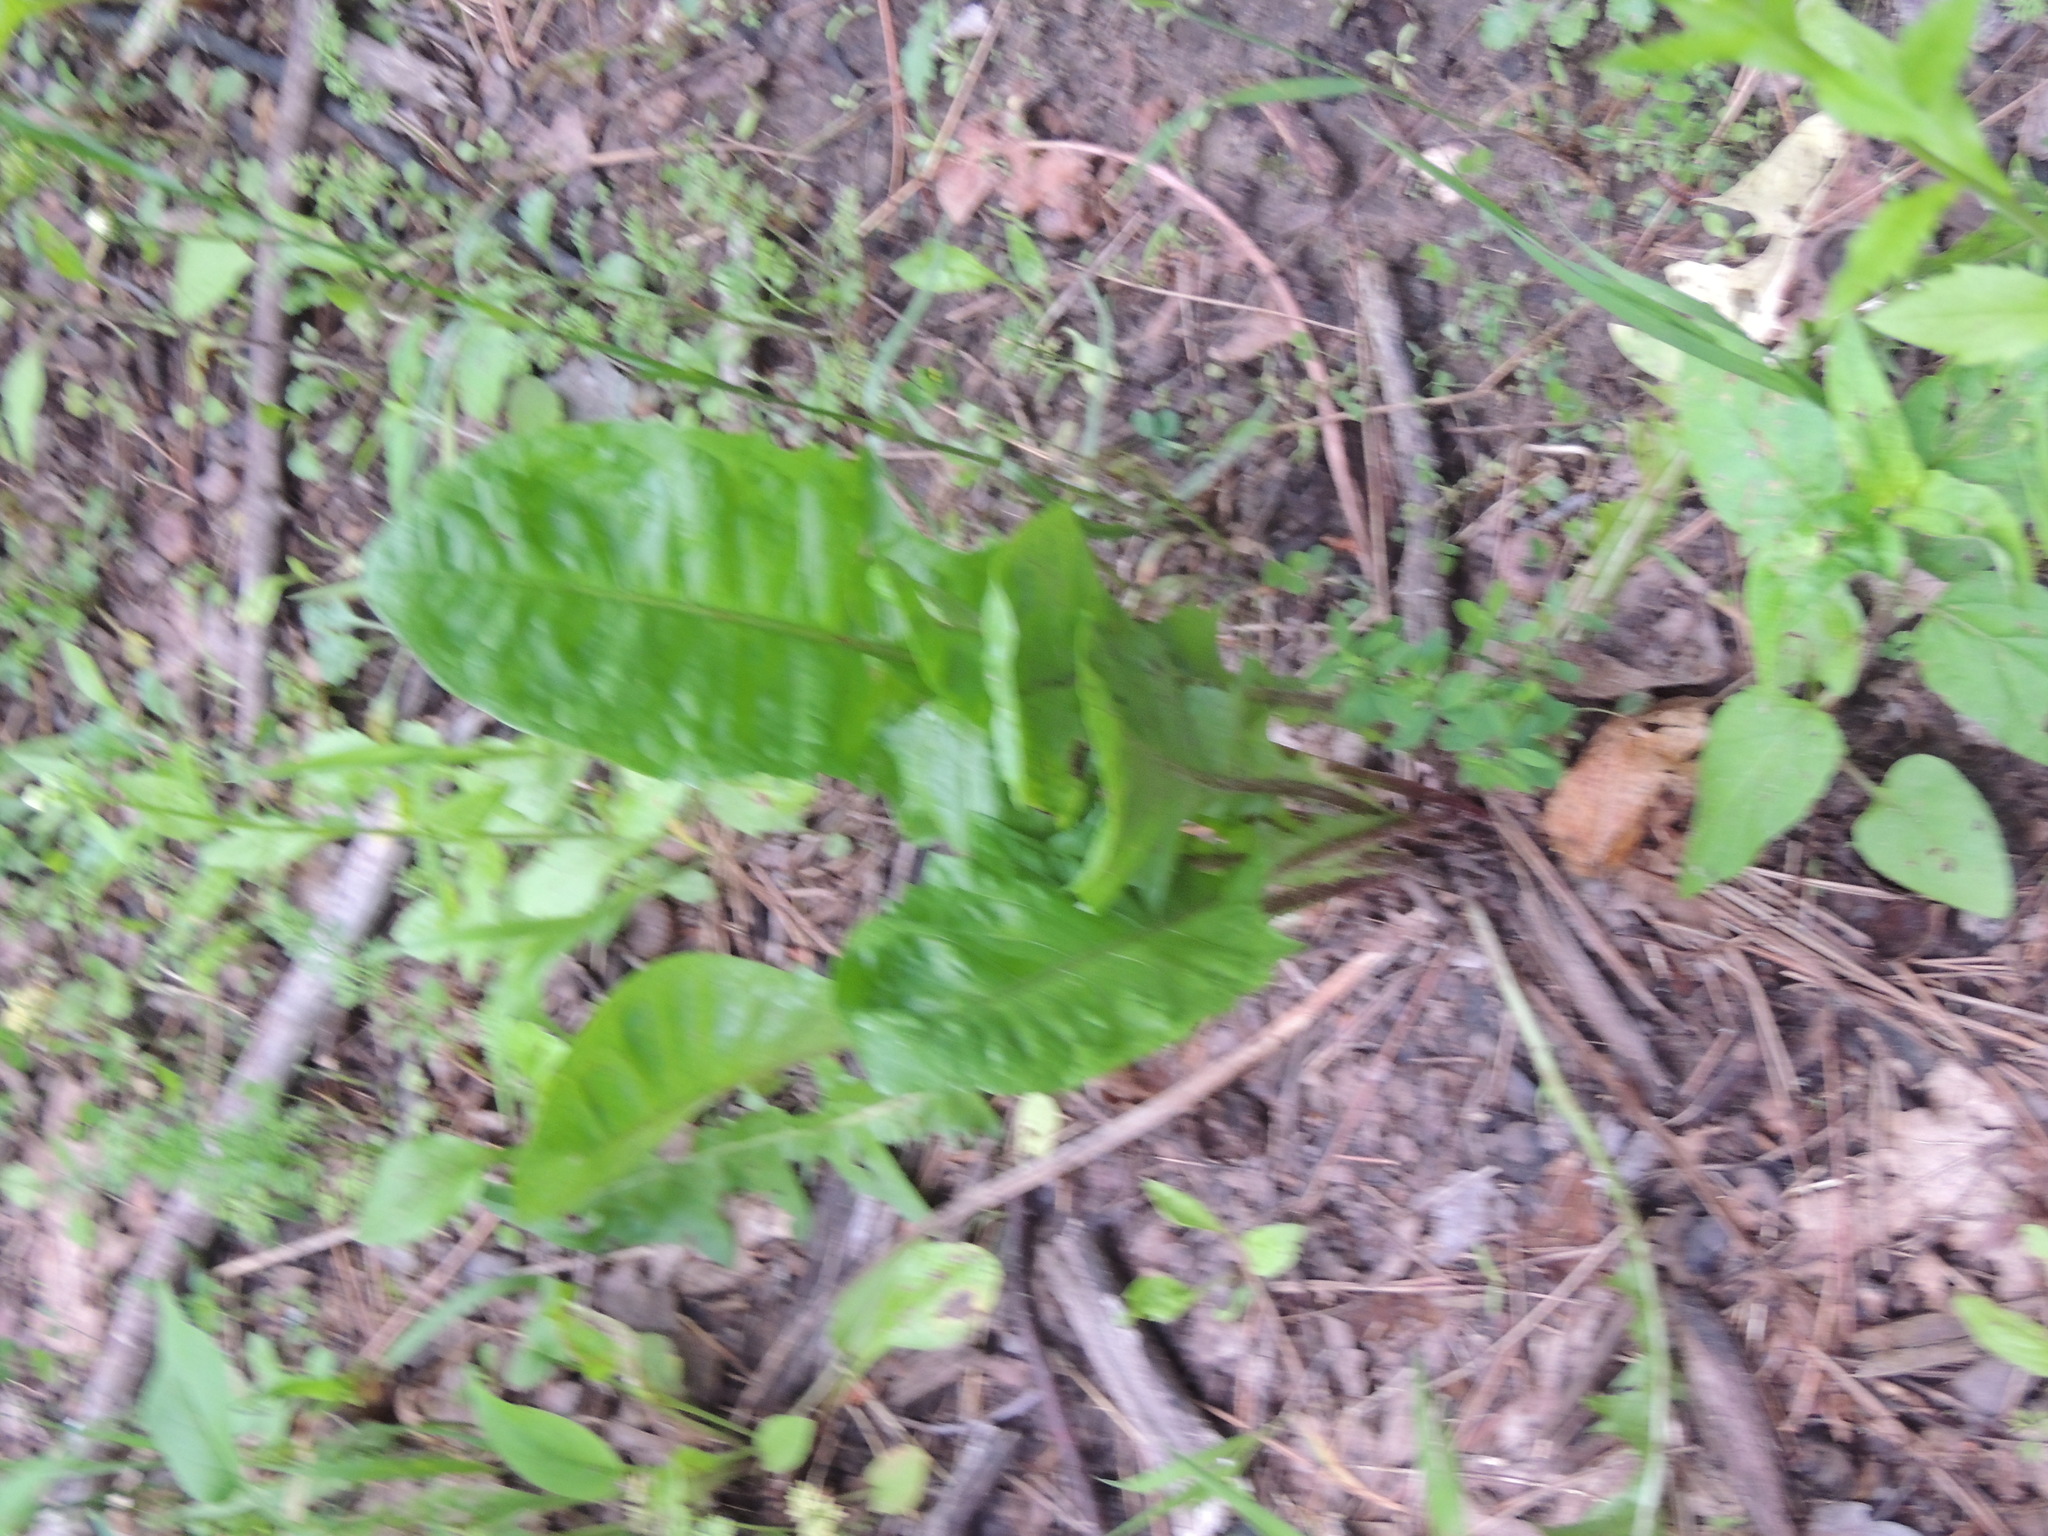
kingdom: Plantae
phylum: Tracheophyta
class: Magnoliopsida
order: Asterales
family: Asteraceae
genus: Taraxacum
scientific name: Taraxacum officinale
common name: Common dandelion
